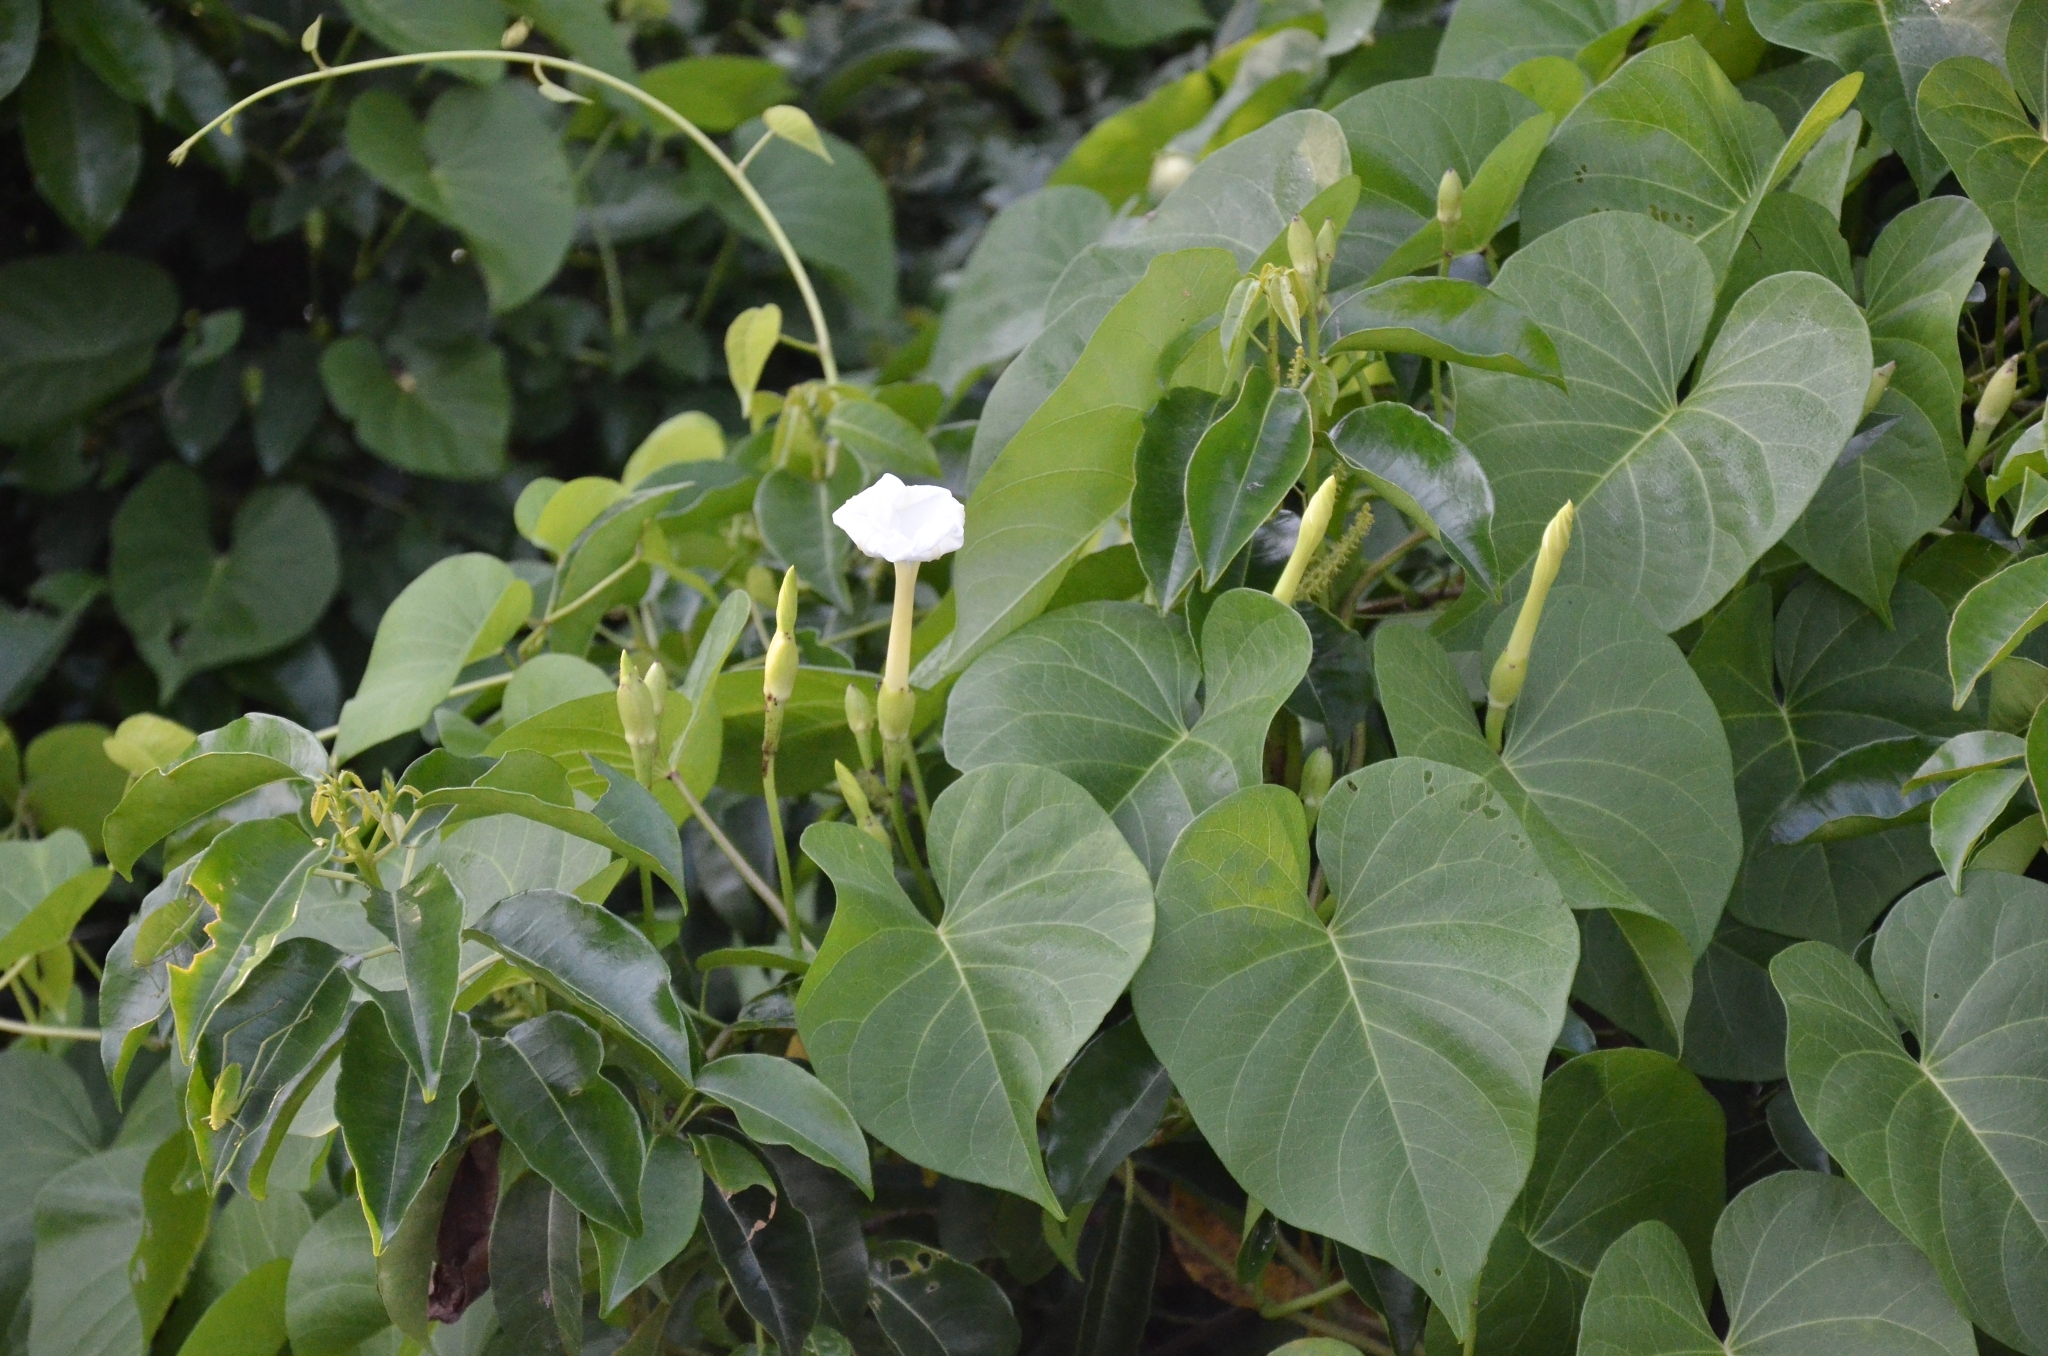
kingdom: Plantae
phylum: Tracheophyta
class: Magnoliopsida
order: Solanales
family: Convolvulaceae
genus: Ipomoea
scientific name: Ipomoea violacea
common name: Beach moonflower
